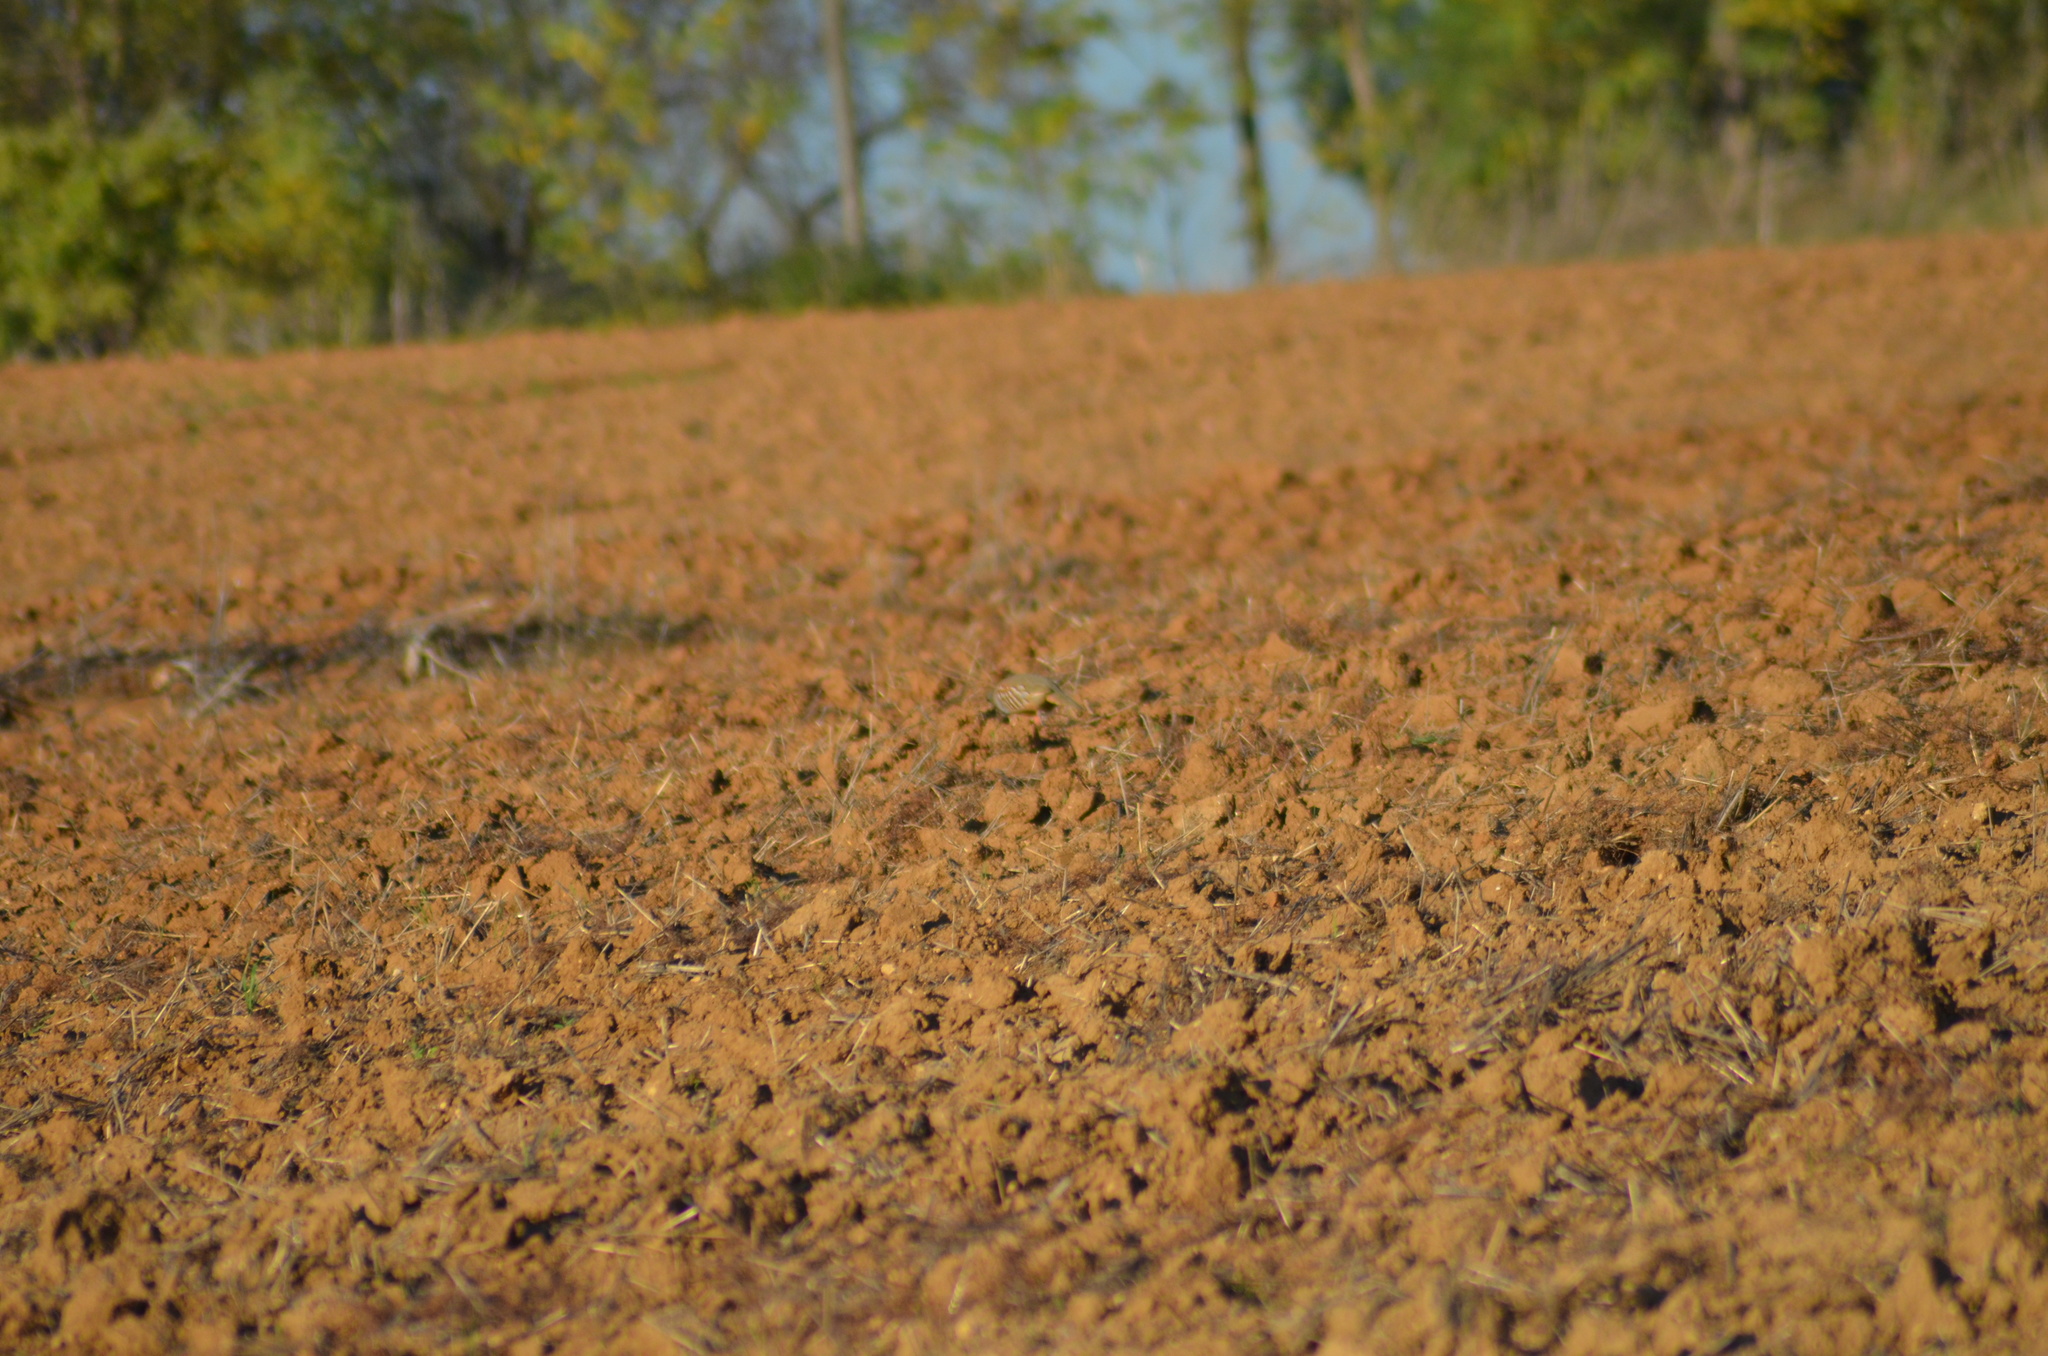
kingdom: Animalia
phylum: Chordata
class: Aves
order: Galliformes
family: Phasianidae
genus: Alectoris
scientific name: Alectoris rufa
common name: Red-legged partridge
